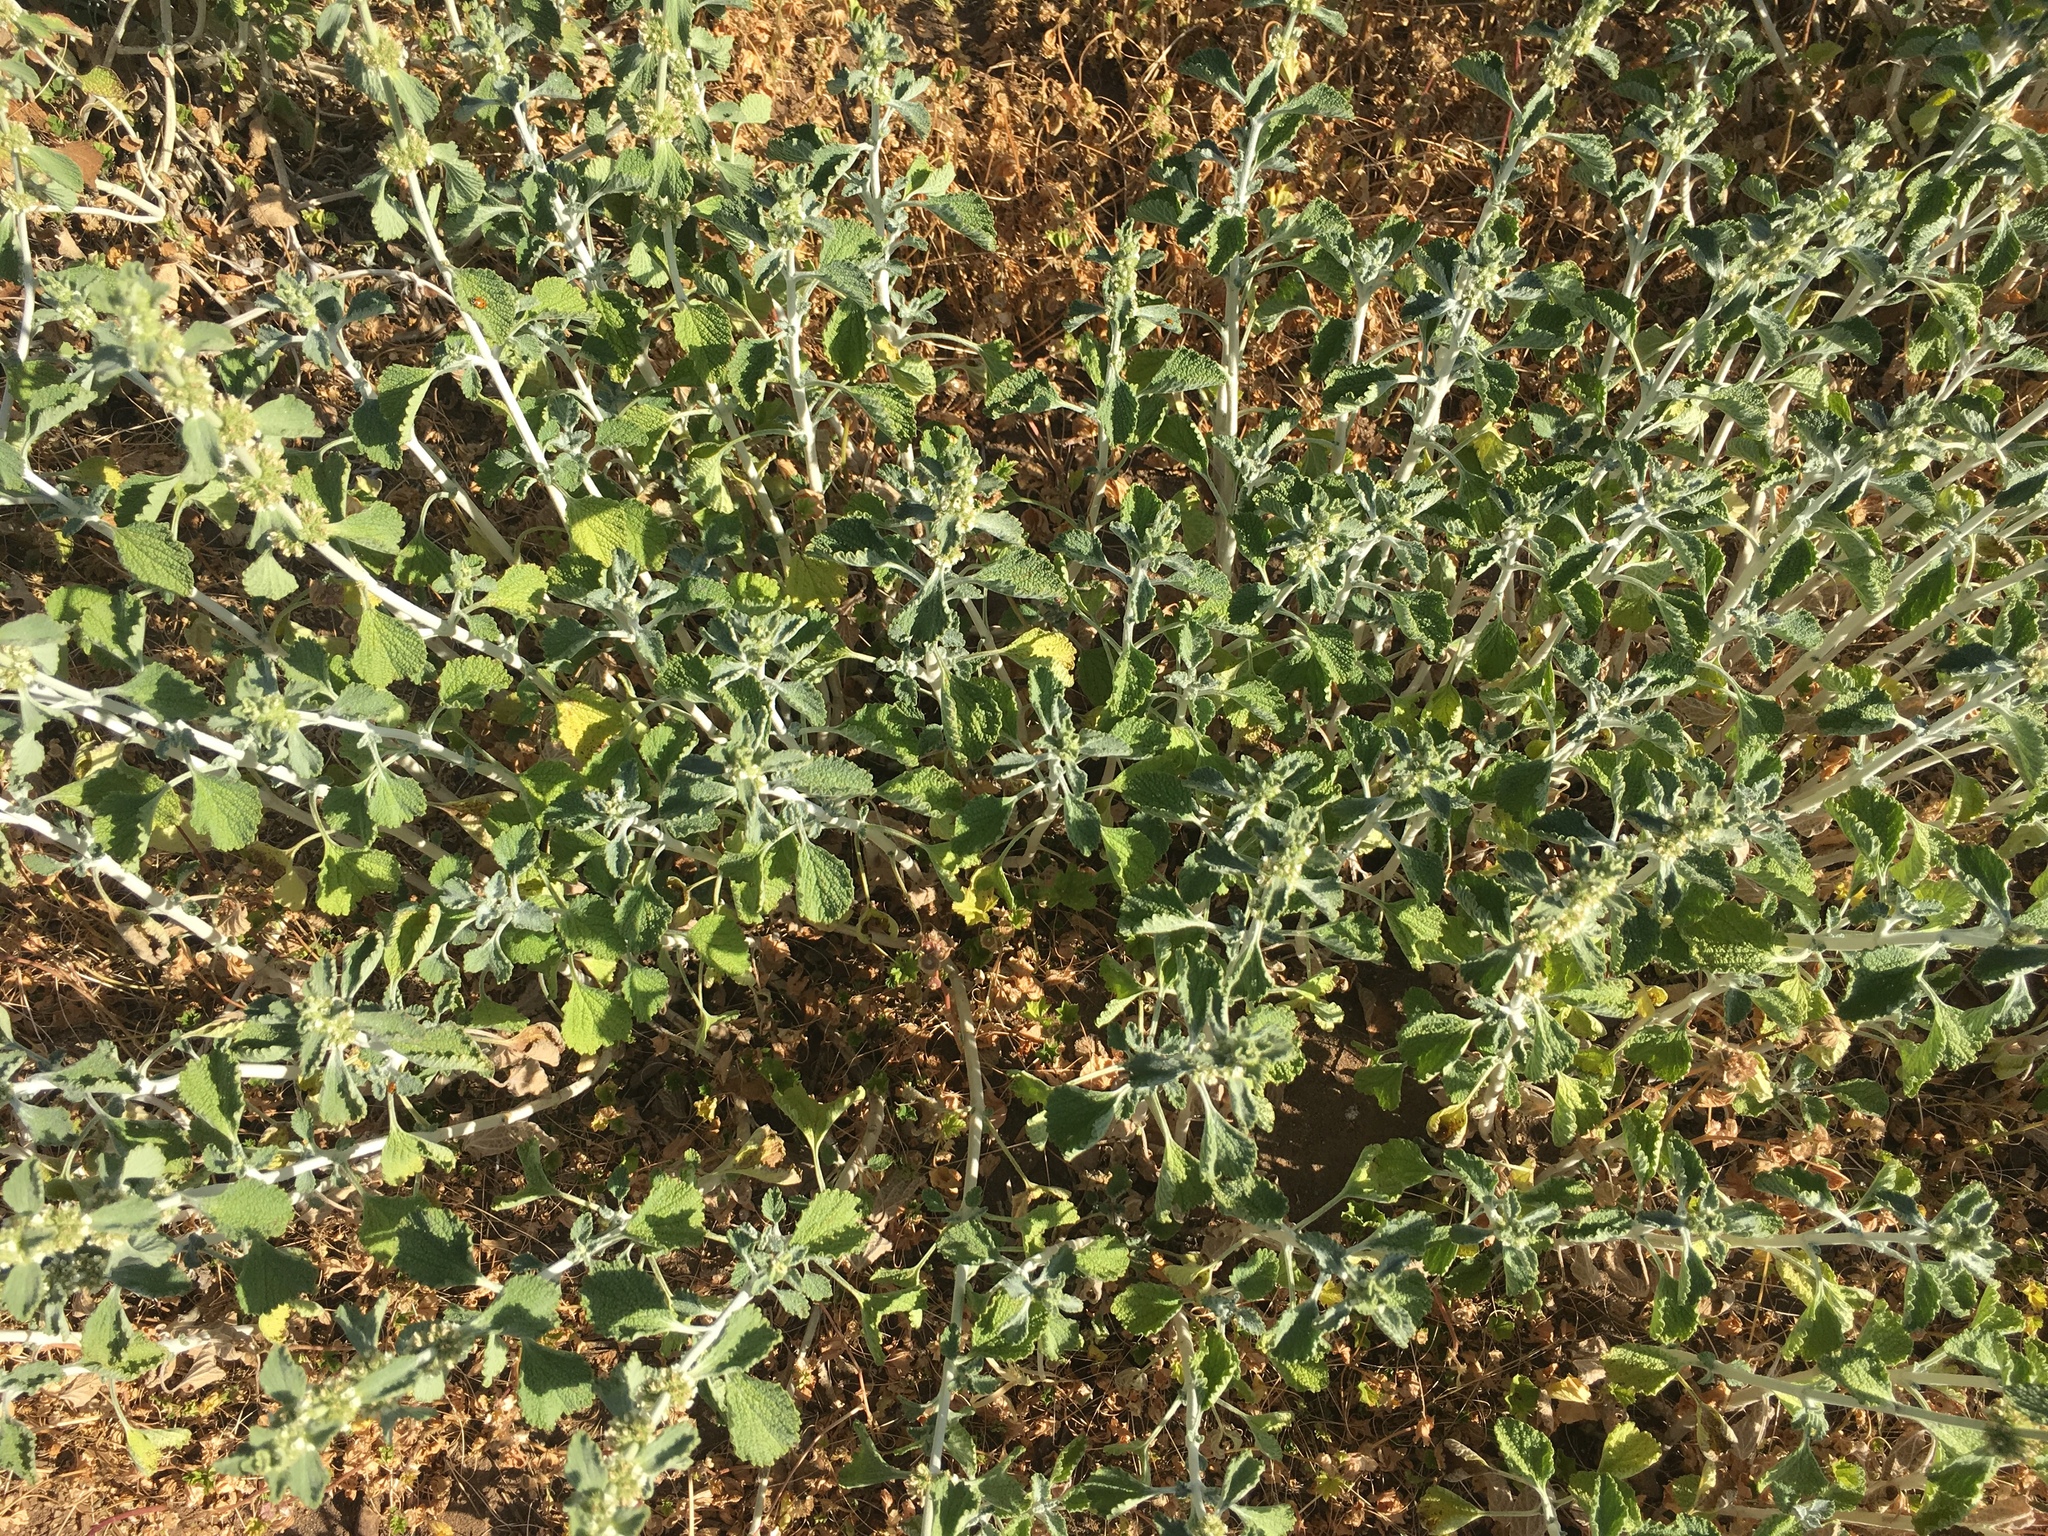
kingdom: Plantae
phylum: Tracheophyta
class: Magnoliopsida
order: Lamiales
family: Lamiaceae
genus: Marrubium
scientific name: Marrubium vulgare
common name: Horehound
